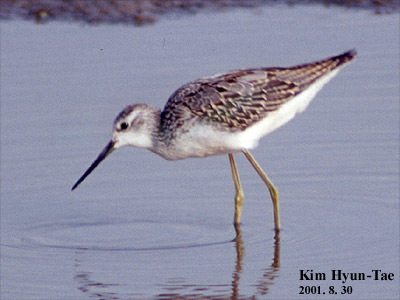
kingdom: Animalia
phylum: Chordata
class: Aves
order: Charadriiformes
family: Scolopacidae
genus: Tringa
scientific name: Tringa stagnatilis
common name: Marsh sandpiper
